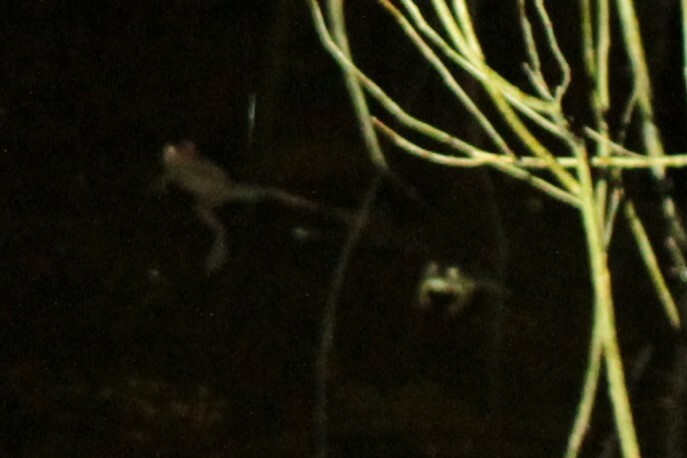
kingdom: Animalia
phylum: Chordata
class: Amphibia
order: Anura
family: Ranidae
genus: Lithobates
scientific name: Lithobates sylvaticus
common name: Wood frog
